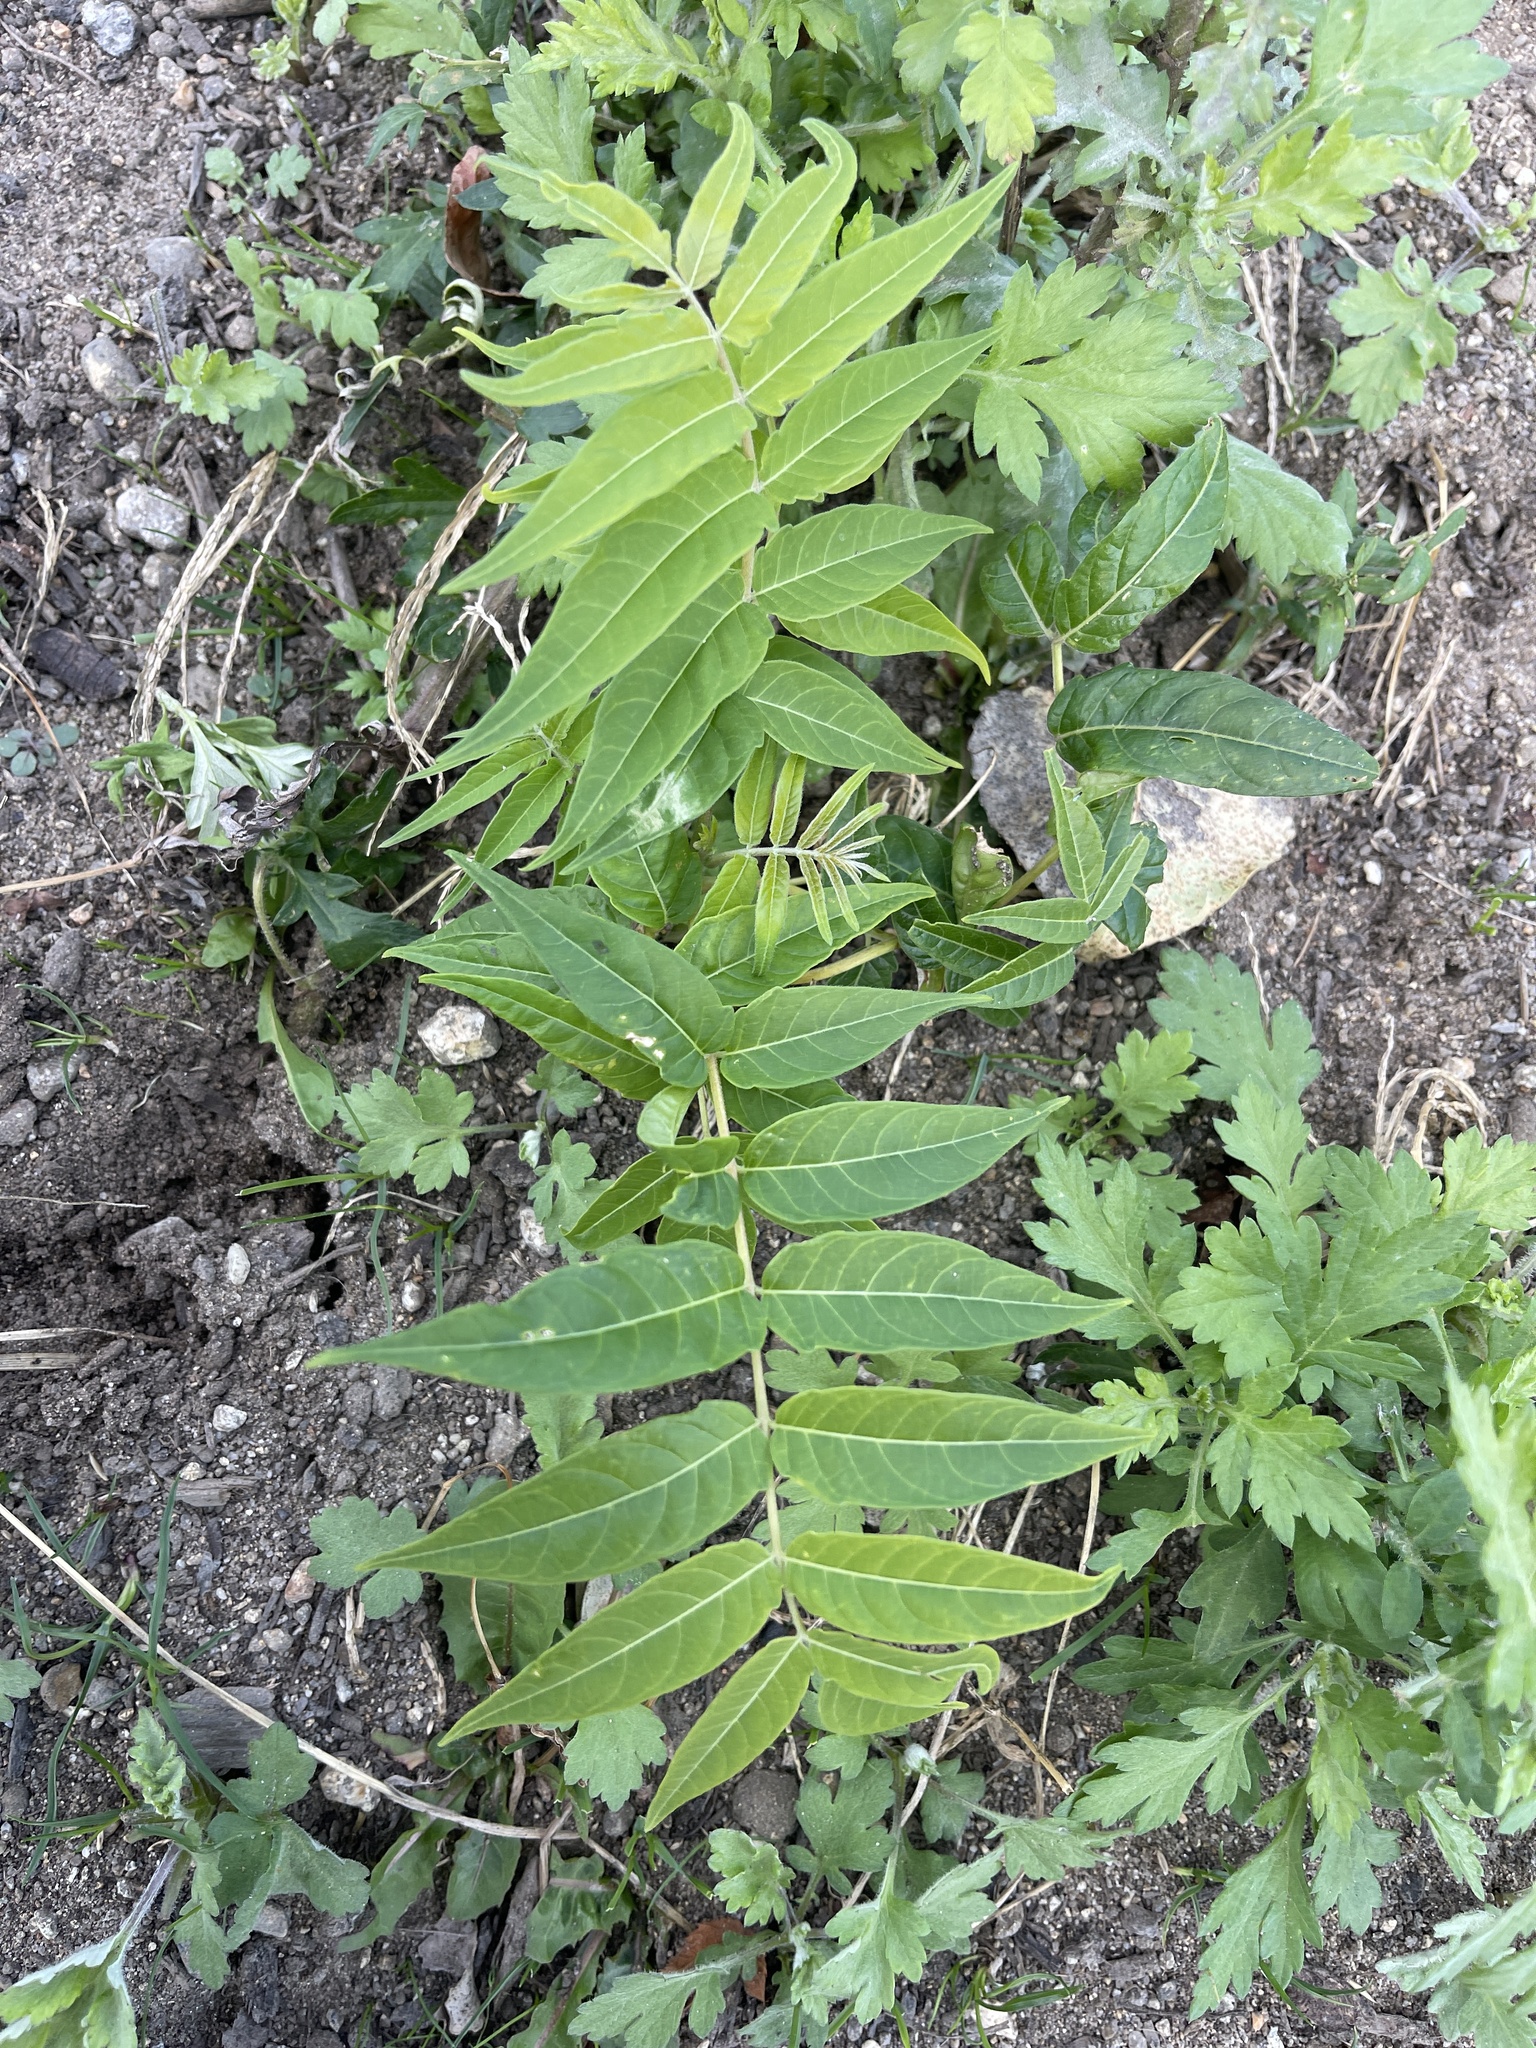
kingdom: Plantae
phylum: Tracheophyta
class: Magnoliopsida
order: Sapindales
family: Simaroubaceae
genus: Ailanthus
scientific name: Ailanthus altissima
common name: Tree-of-heaven
